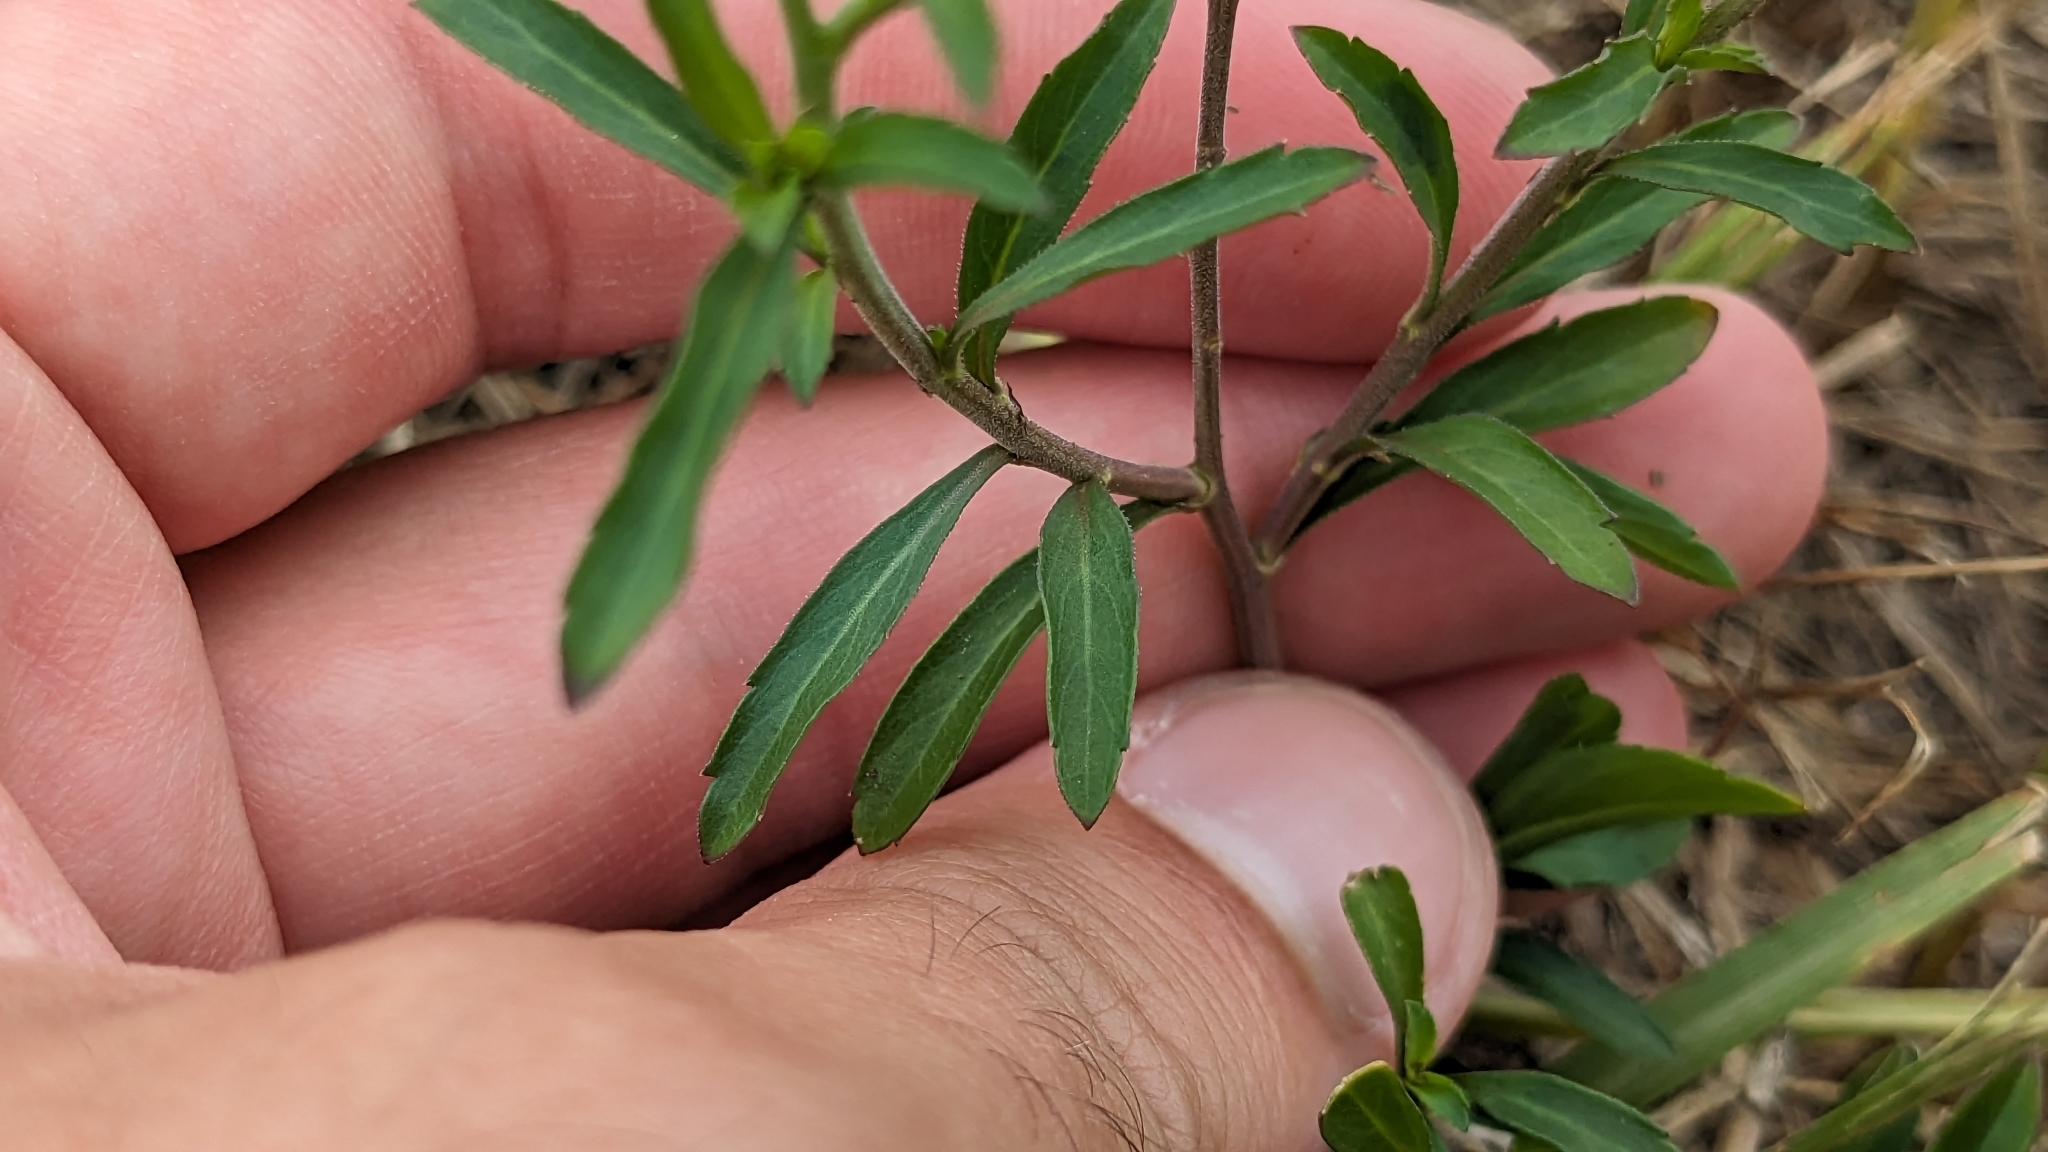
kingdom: Plantae
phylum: Tracheophyta
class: Magnoliopsida
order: Brassicales
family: Brassicaceae
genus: Lepidium
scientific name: Lepidium virginicum
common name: Least pepperwort
